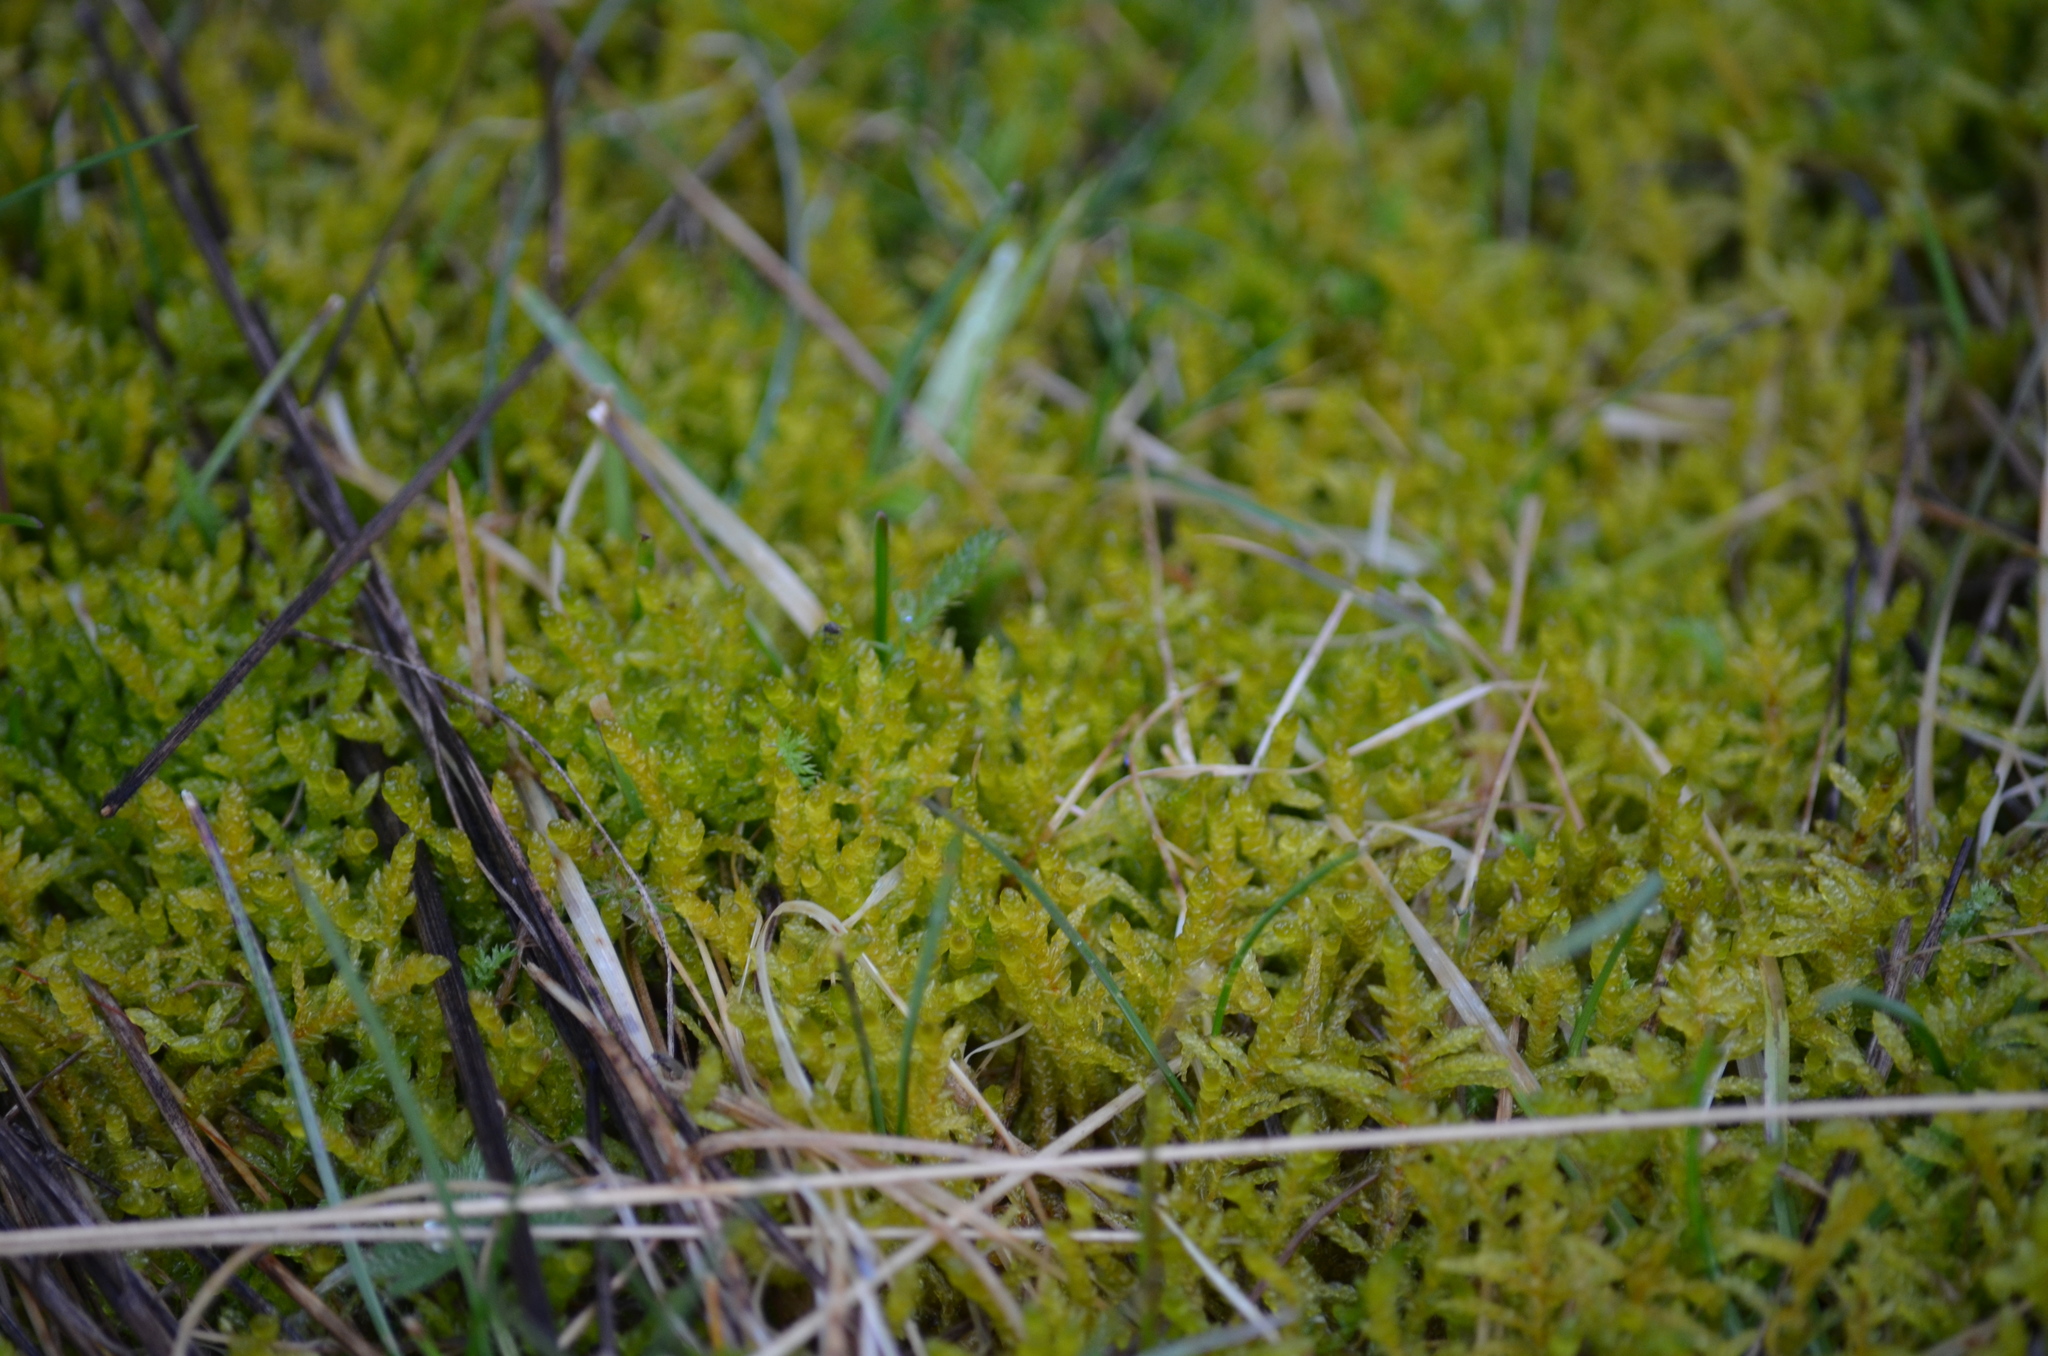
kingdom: Plantae
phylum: Bryophyta
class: Bryopsida
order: Hypnales
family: Brachytheciaceae
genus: Pseudoscleropodium
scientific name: Pseudoscleropodium purum
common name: Neat feather-moss
